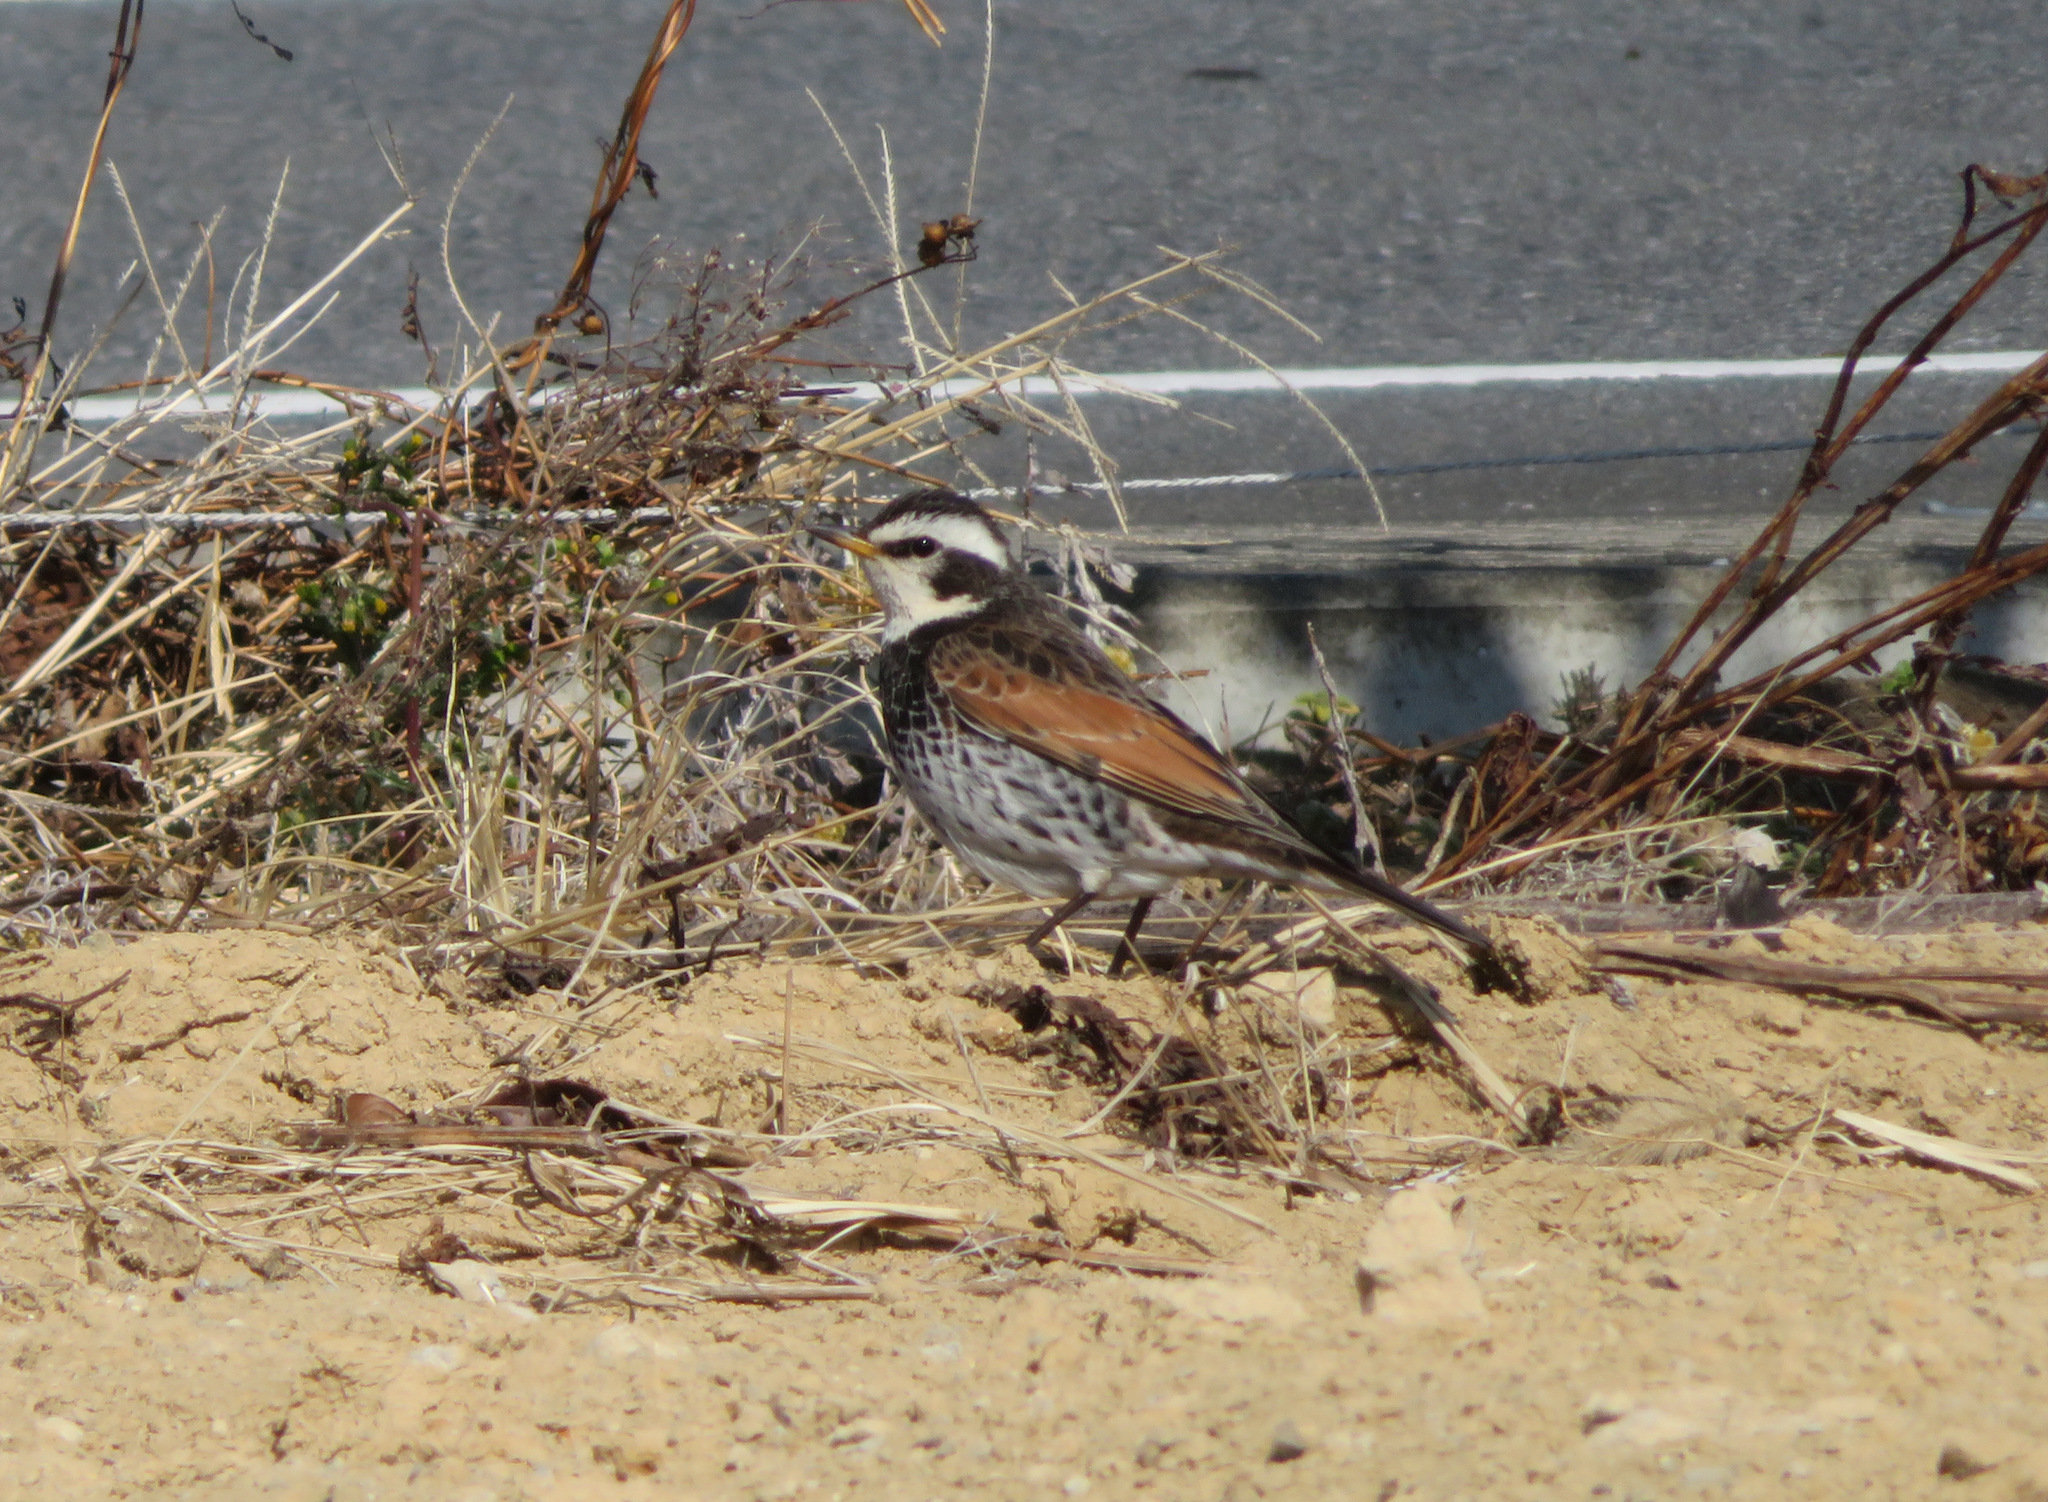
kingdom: Animalia
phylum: Chordata
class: Aves
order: Passeriformes
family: Turdidae
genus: Turdus
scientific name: Turdus eunomus
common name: Dusky thrush
